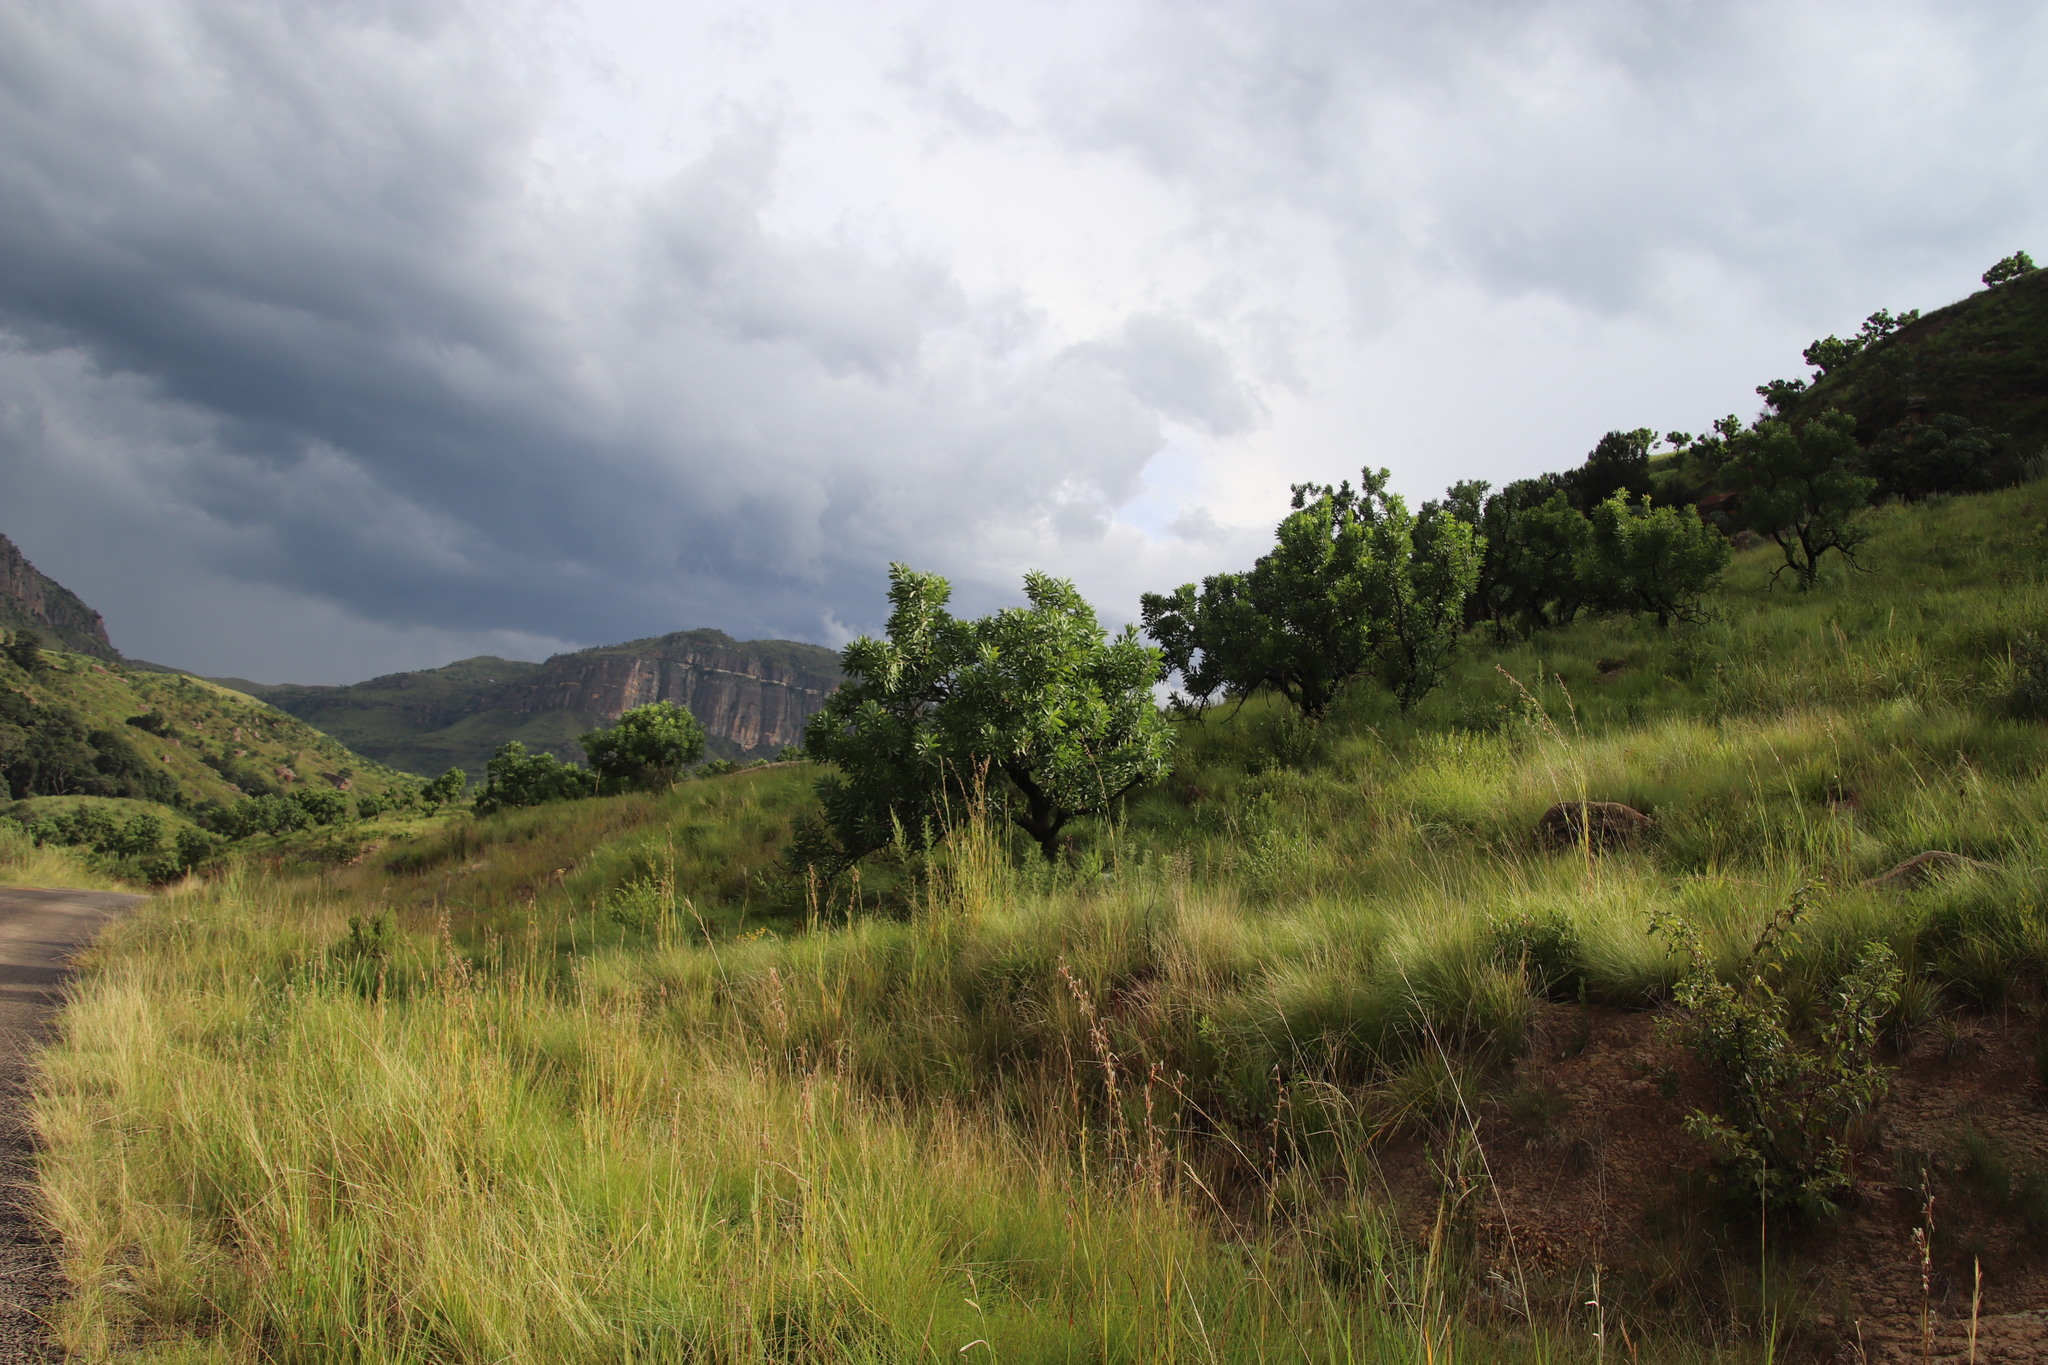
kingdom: Plantae
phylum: Tracheophyta
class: Magnoliopsida
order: Proteales
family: Proteaceae
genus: Protea
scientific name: Protea caffra
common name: Common sugarbush
